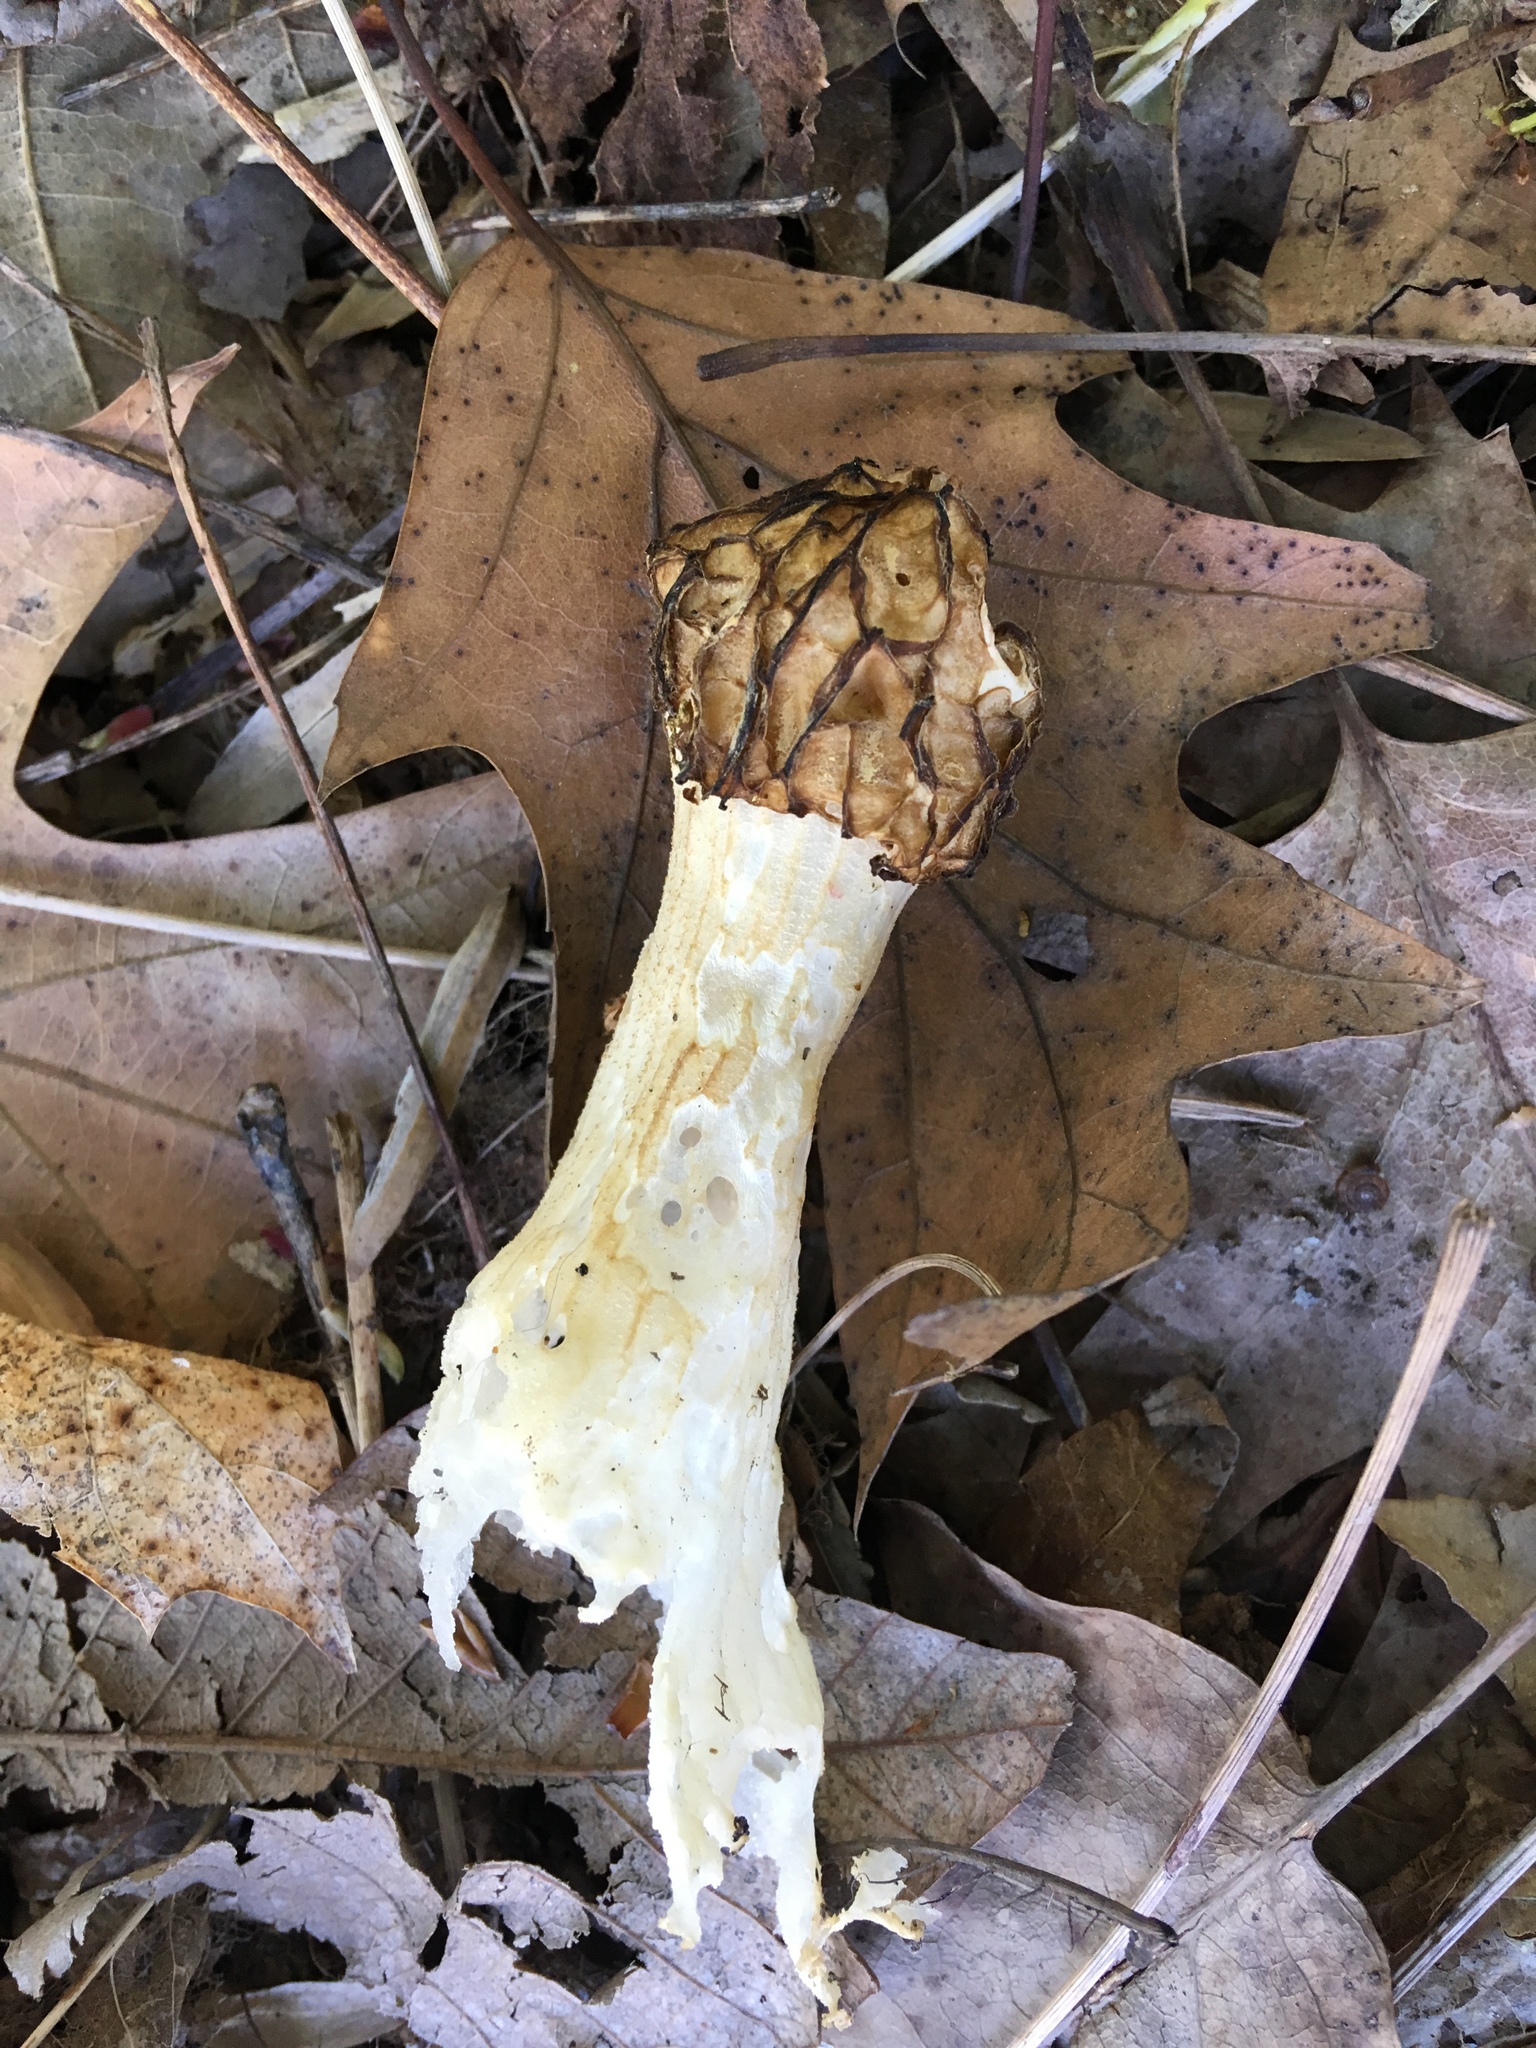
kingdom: Fungi
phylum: Ascomycota
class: Pezizomycetes
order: Pezizales
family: Morchellaceae
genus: Morchella
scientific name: Morchella punctipes
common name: Half-free morel
